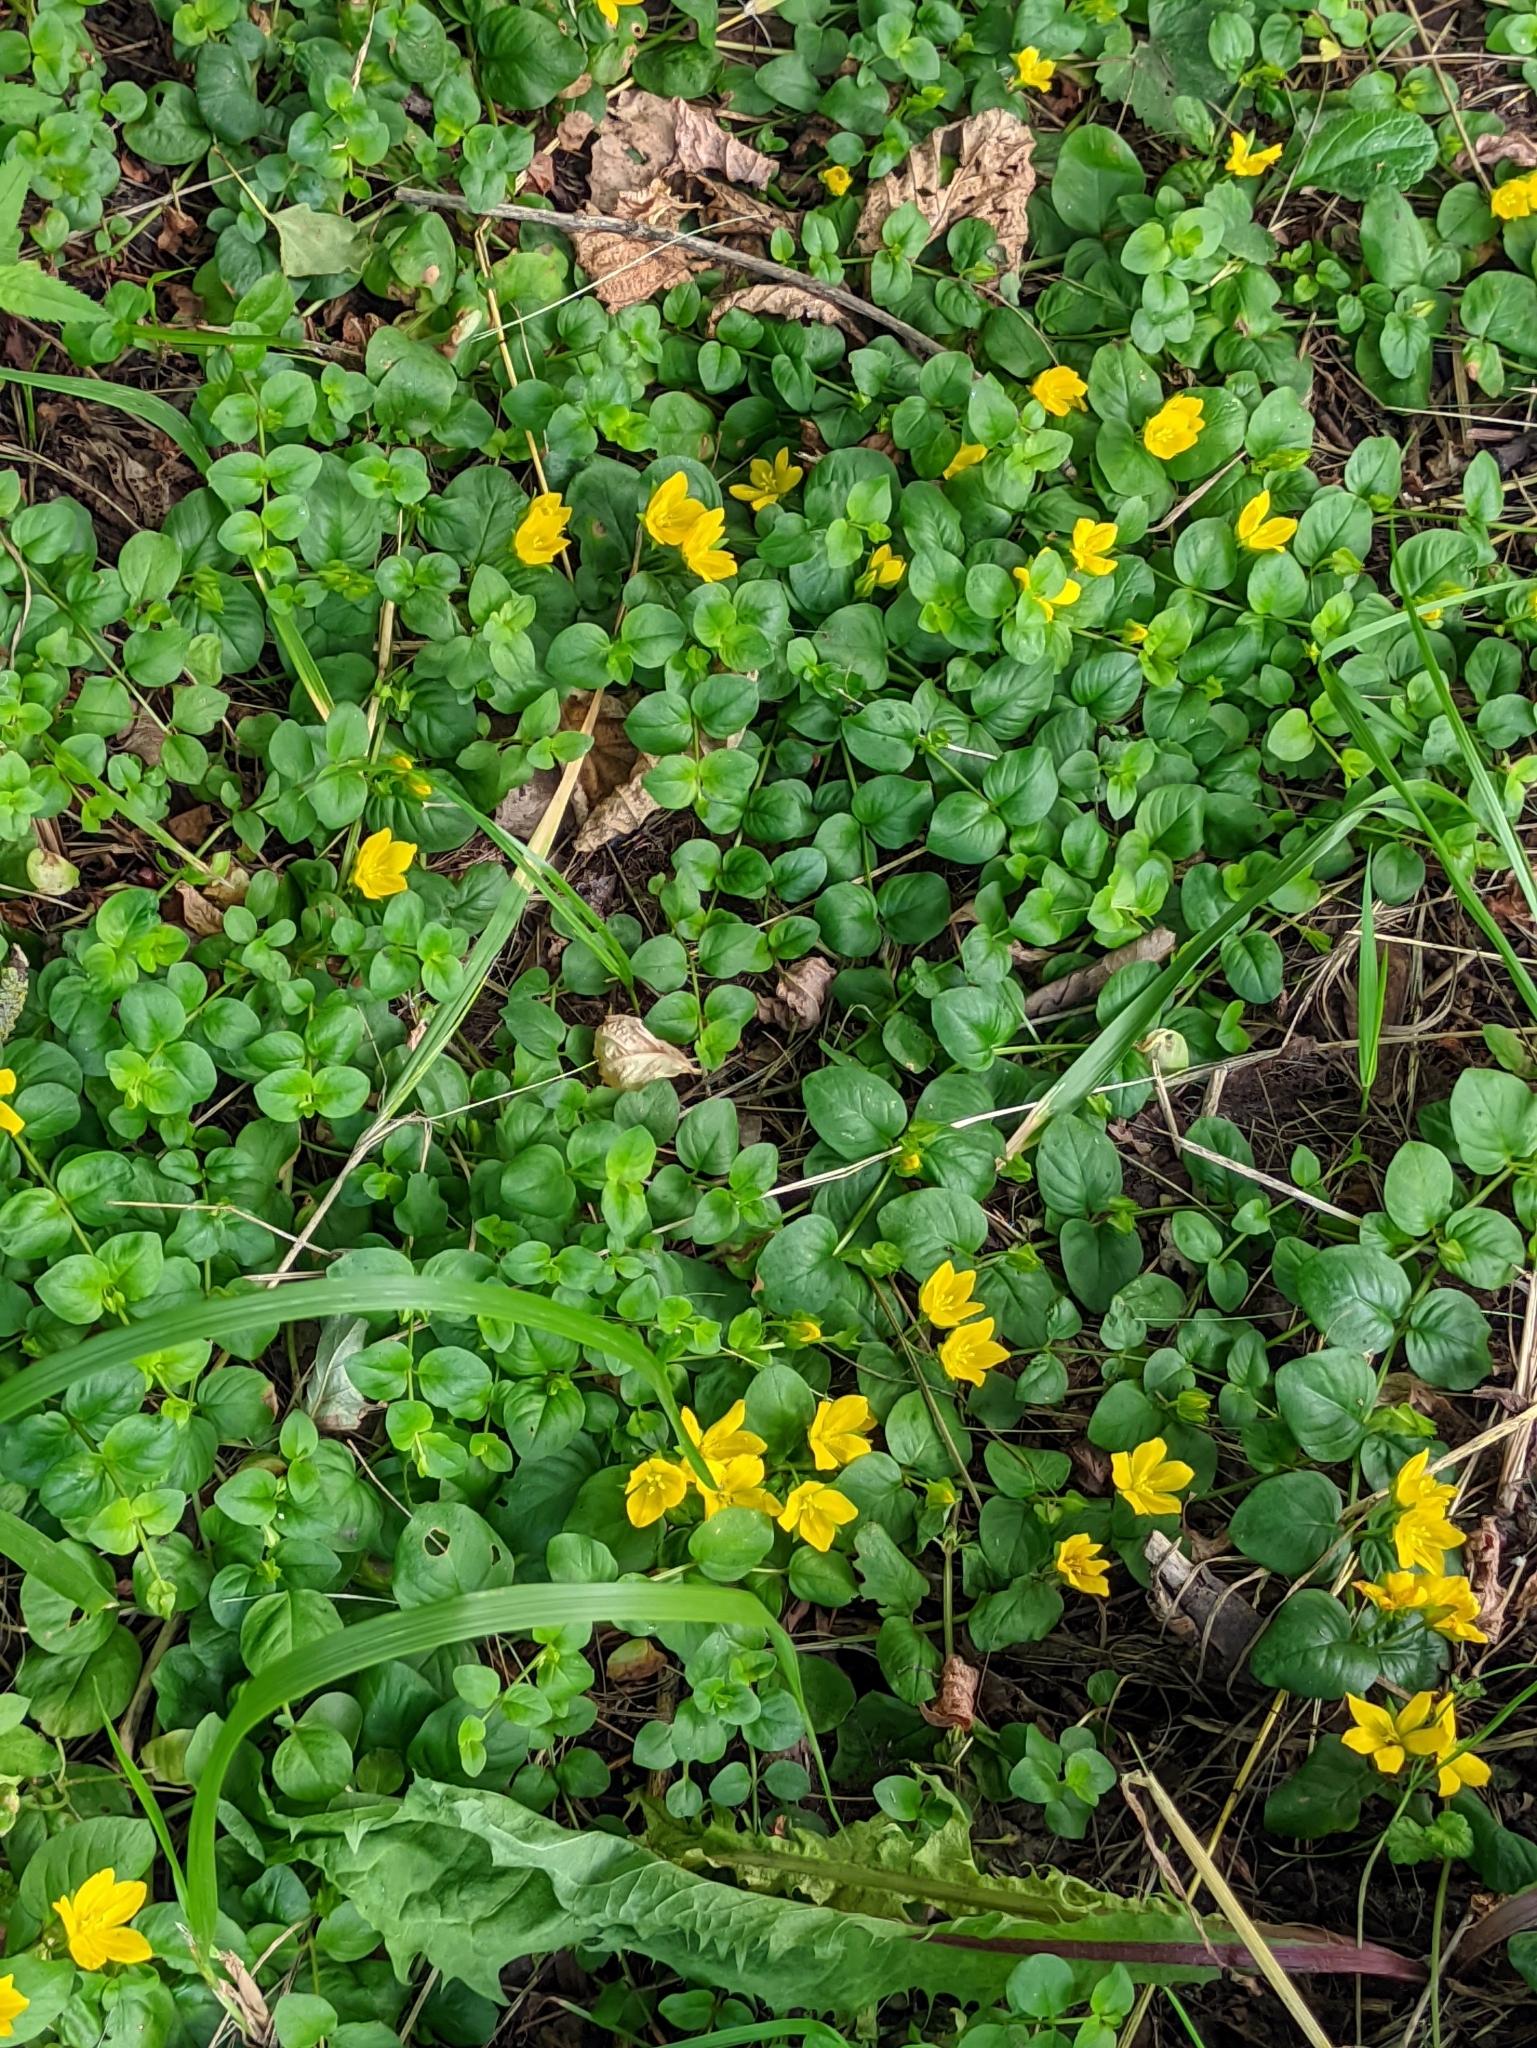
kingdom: Plantae
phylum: Tracheophyta
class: Magnoliopsida
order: Ericales
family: Primulaceae
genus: Lysimachia
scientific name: Lysimachia nummularia
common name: Moneywort
